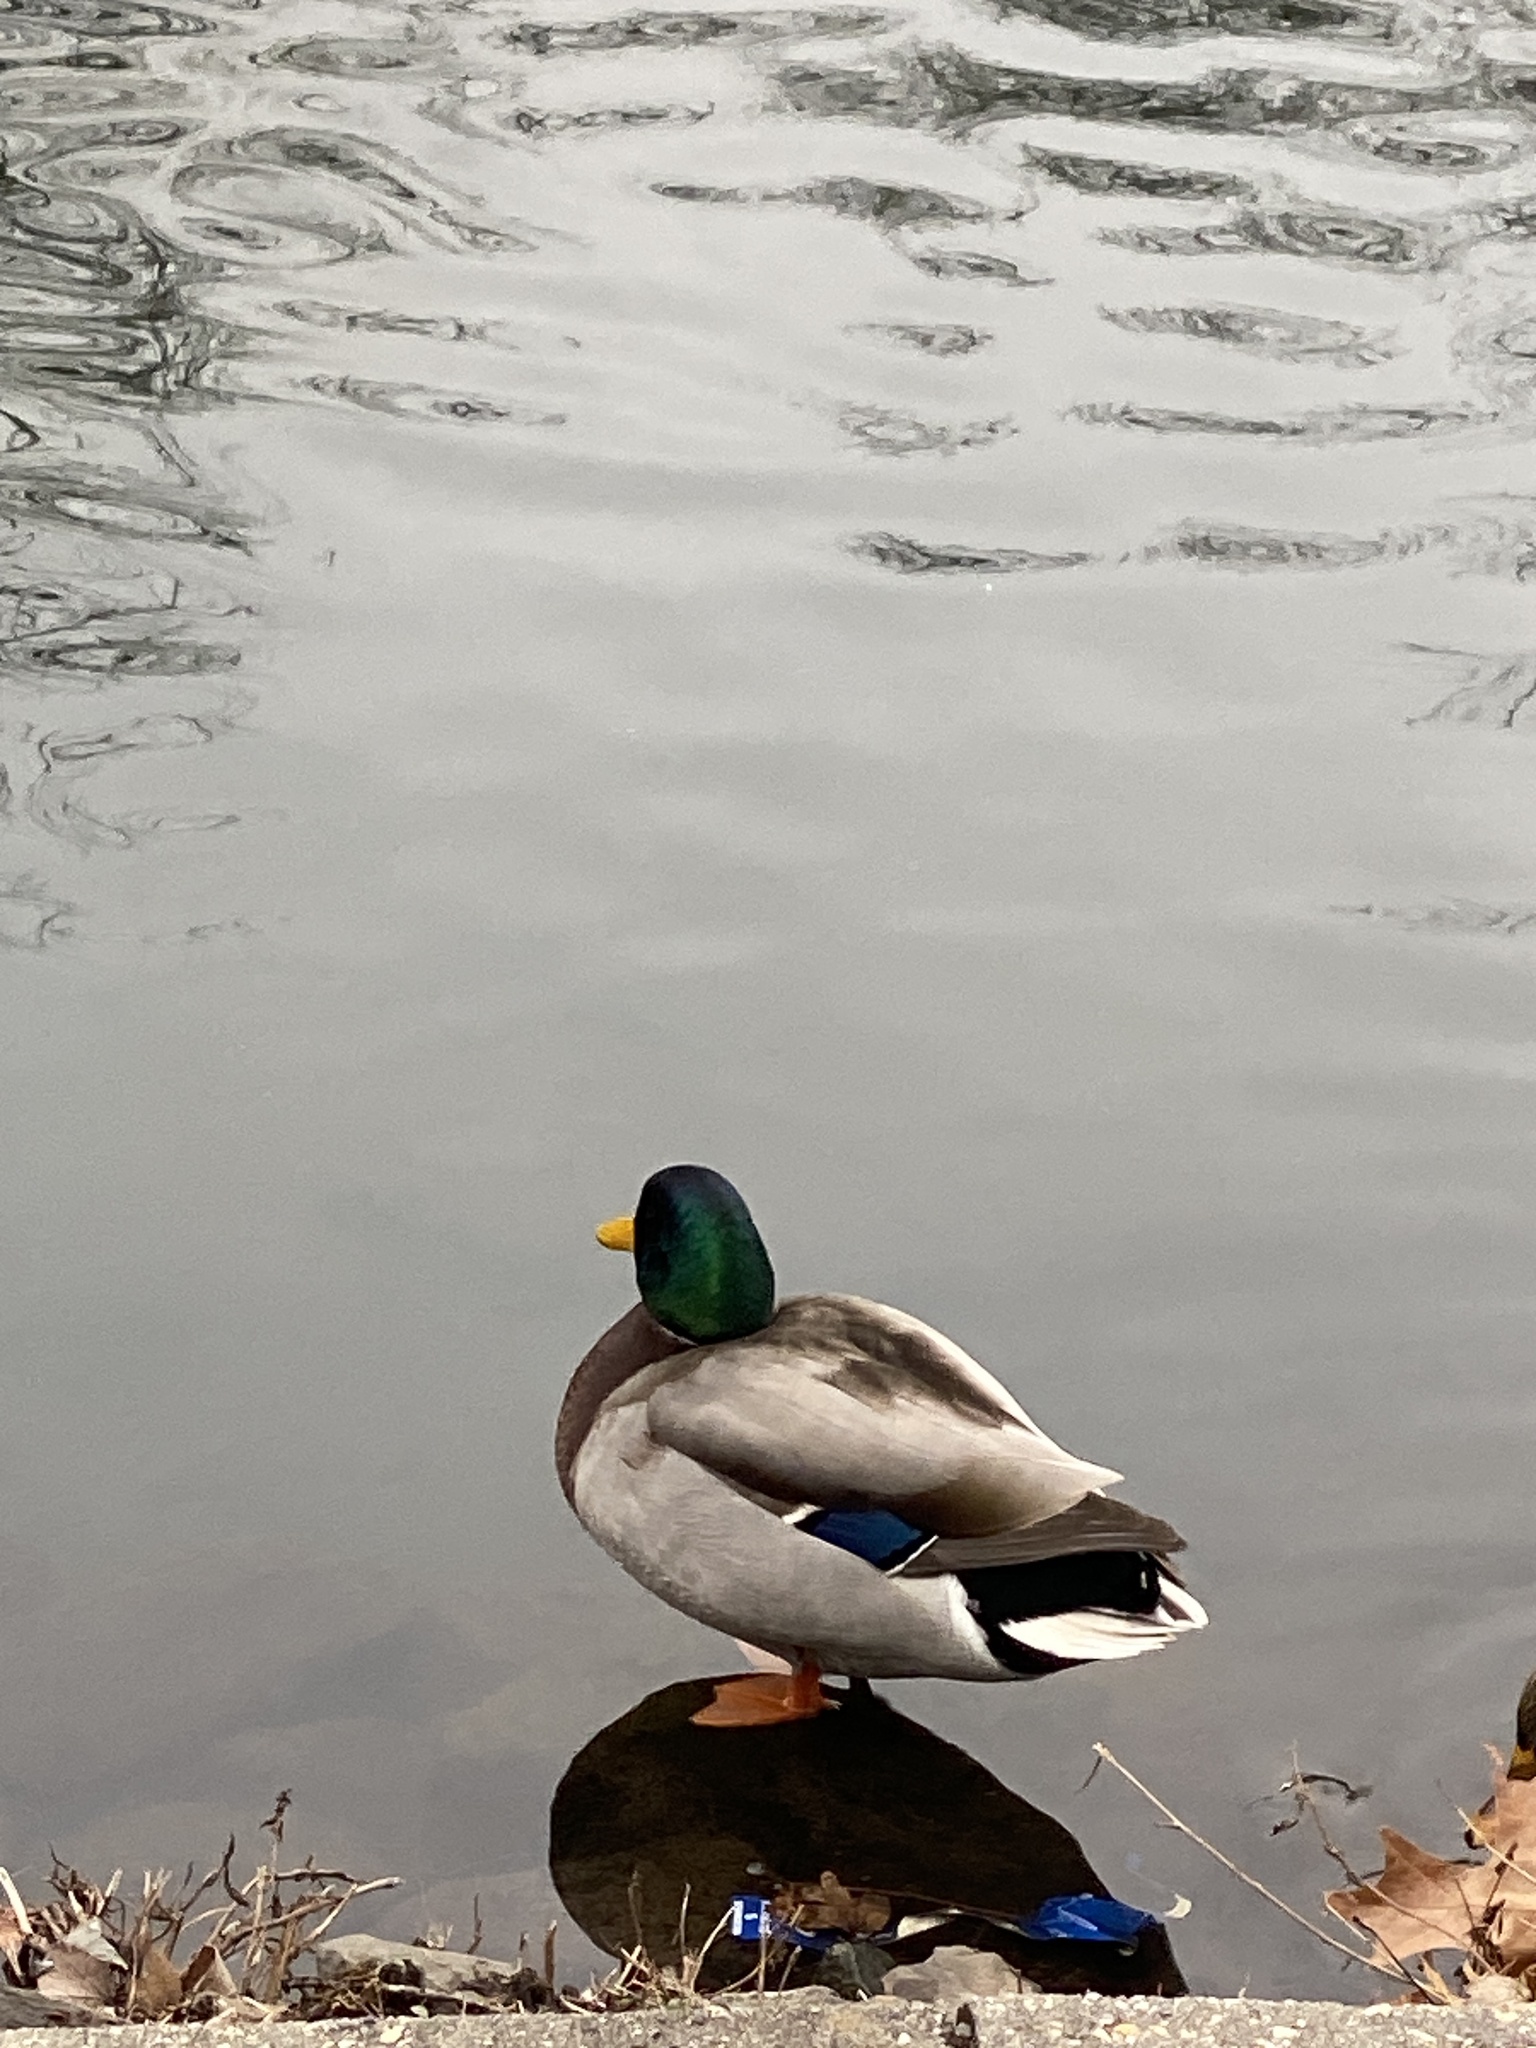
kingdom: Animalia
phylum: Chordata
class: Aves
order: Anseriformes
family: Anatidae
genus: Anas
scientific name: Anas platyrhynchos
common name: Mallard
